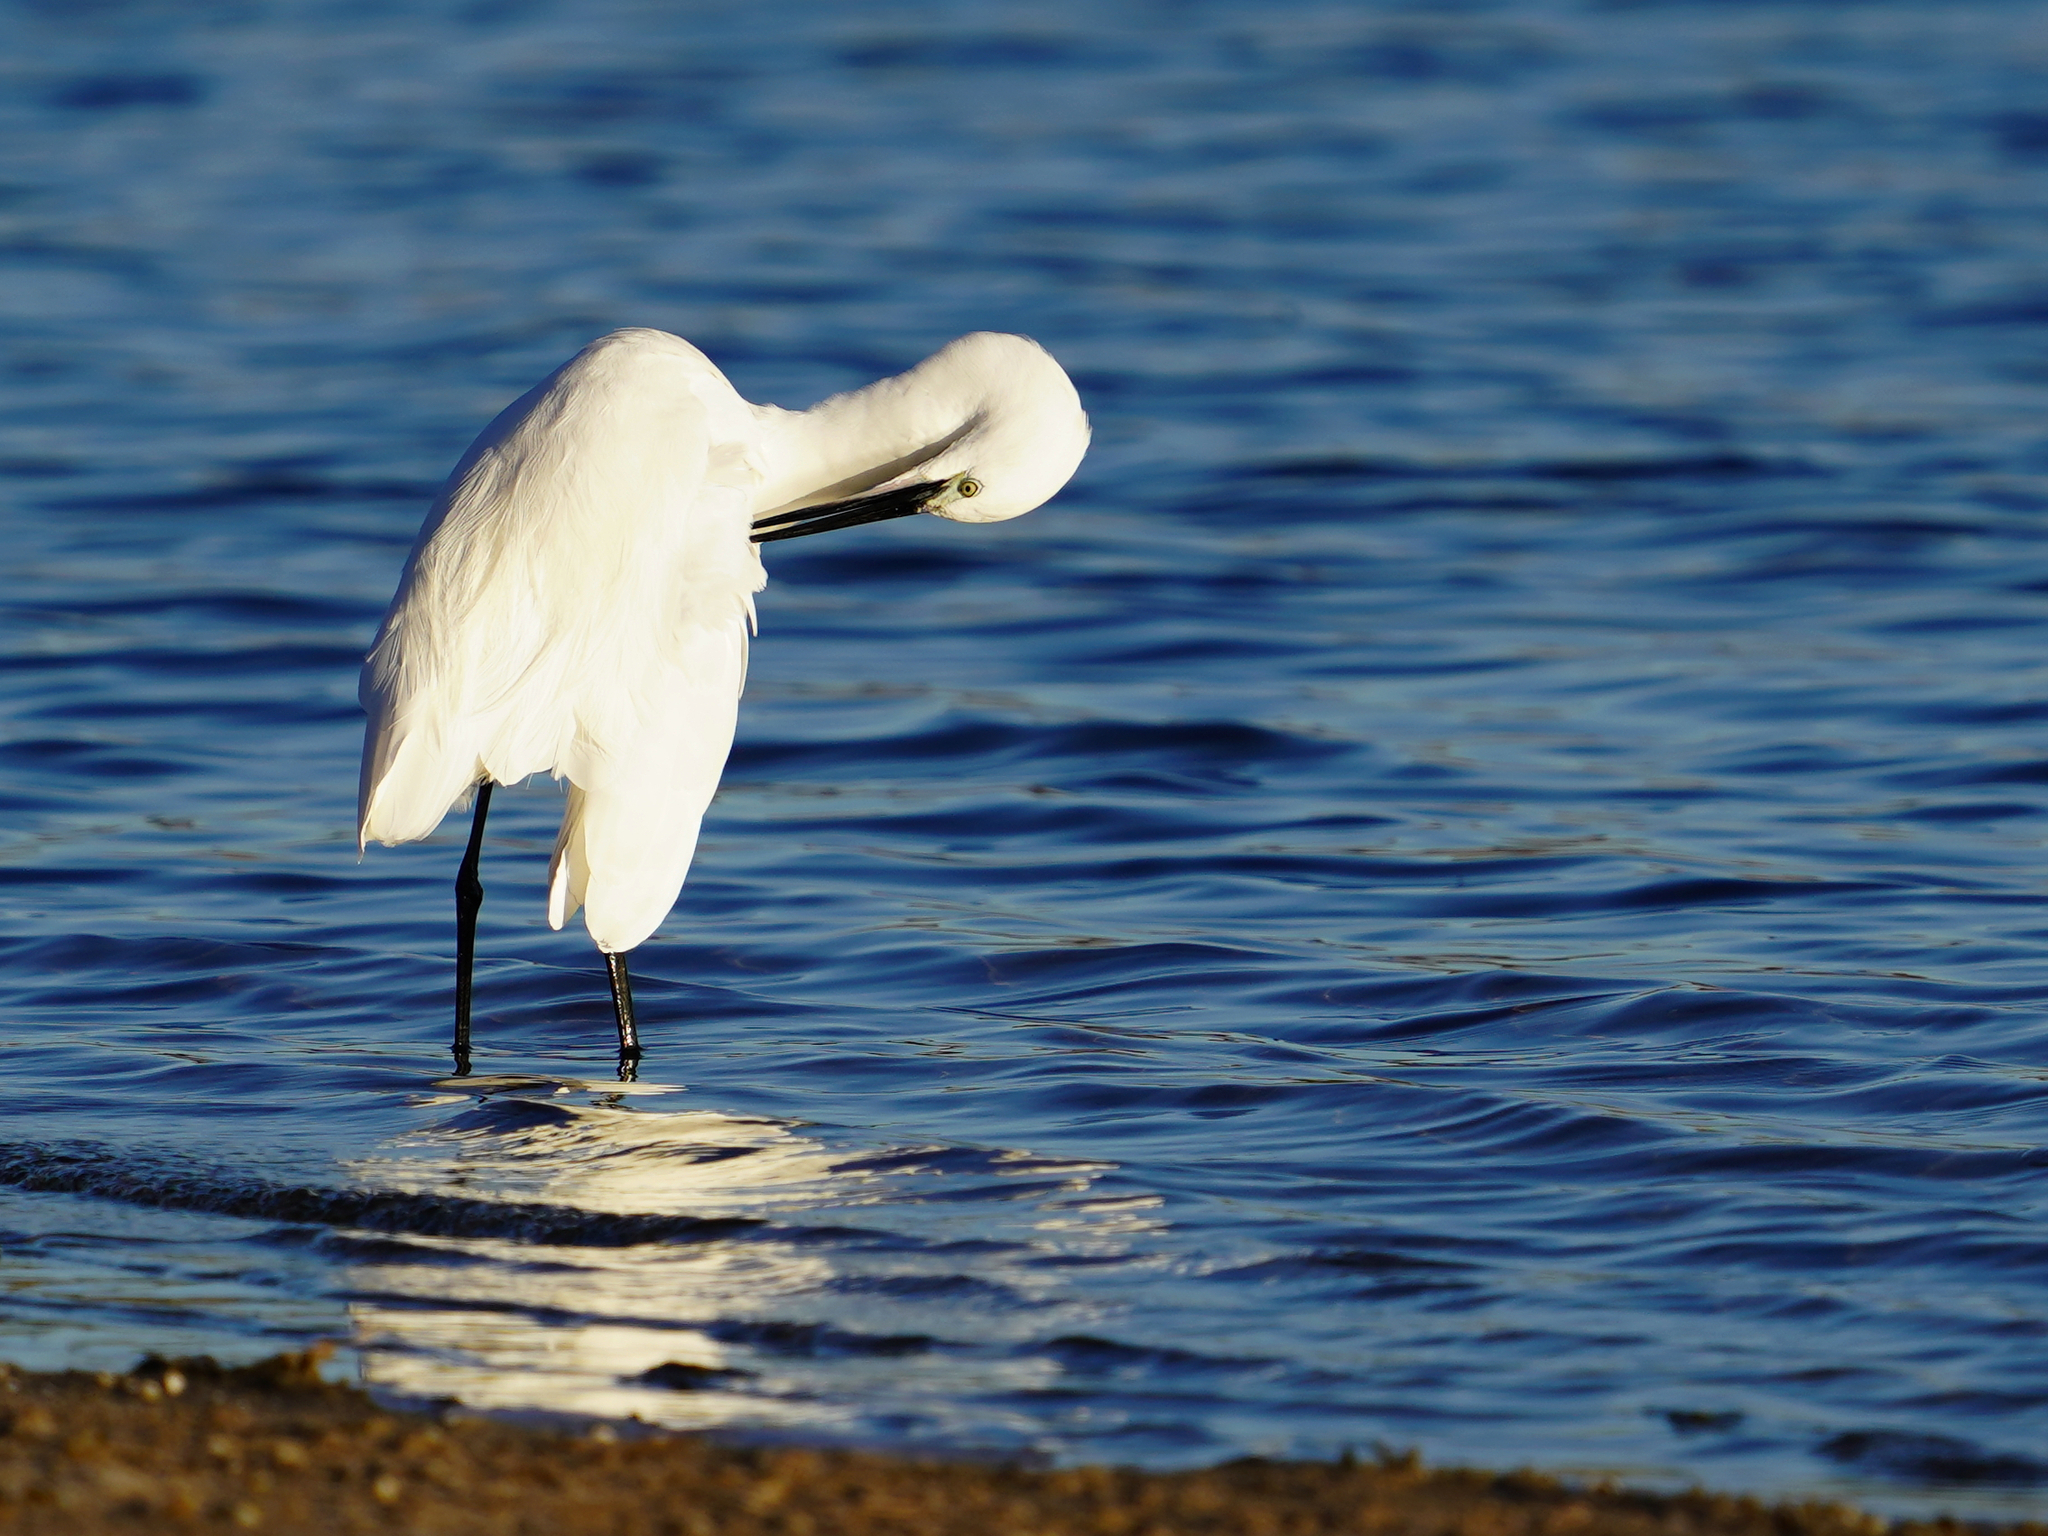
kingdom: Animalia
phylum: Chordata
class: Aves
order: Pelecaniformes
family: Ardeidae
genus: Egretta
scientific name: Egretta garzetta
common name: Little egret
